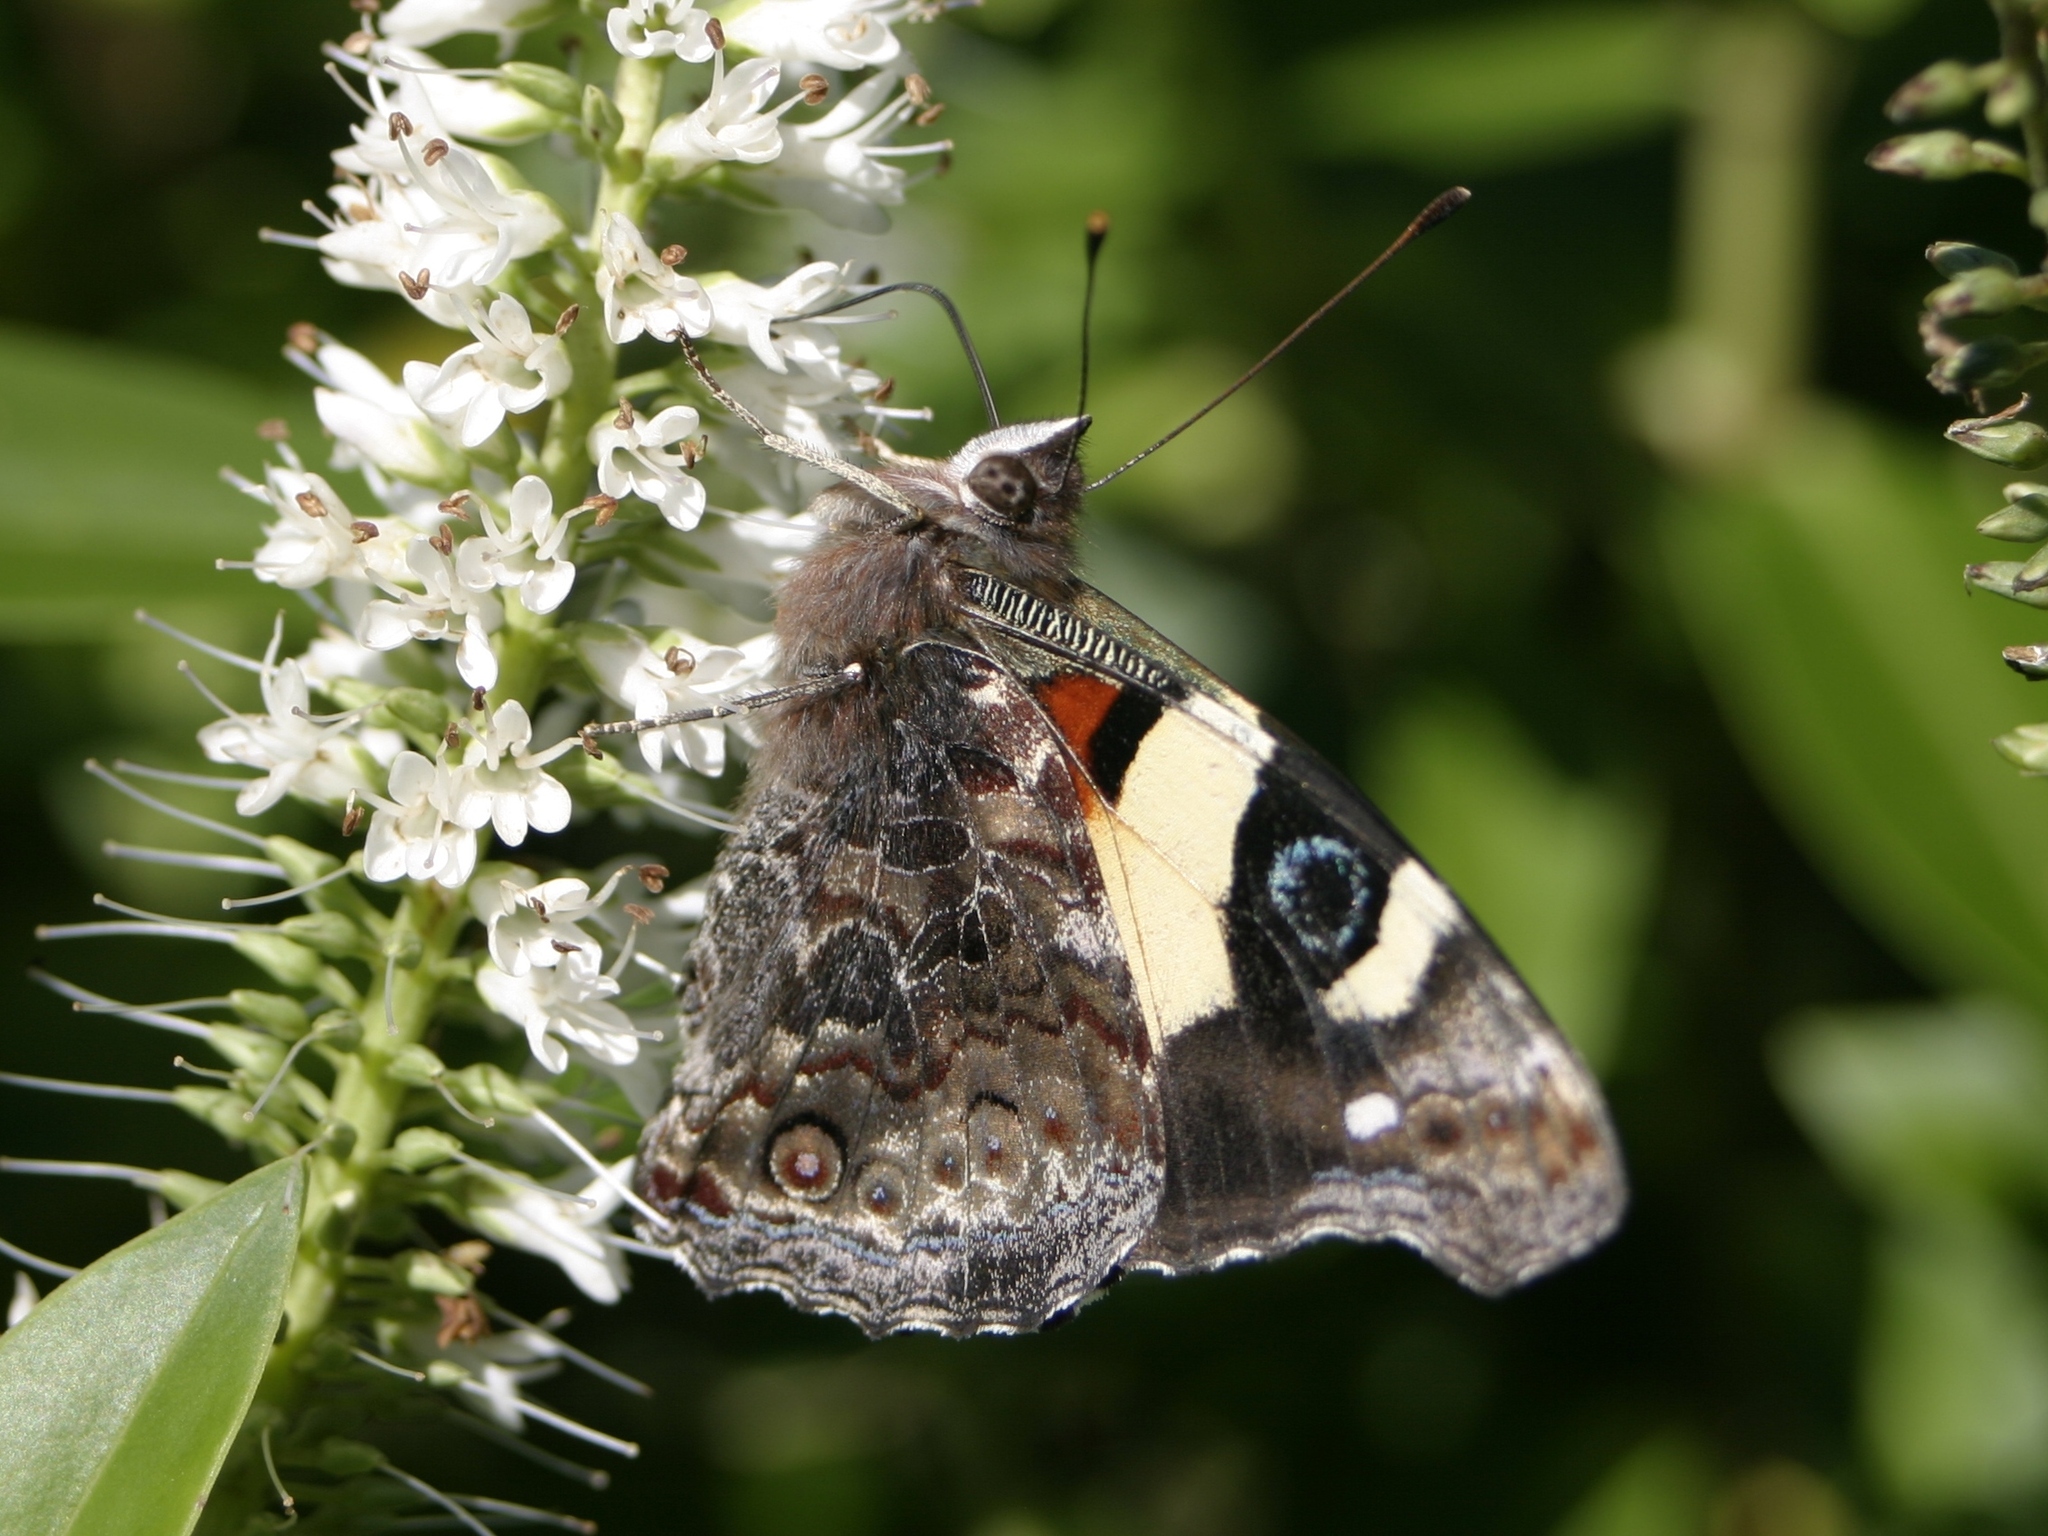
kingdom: Animalia
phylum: Arthropoda
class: Insecta
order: Lepidoptera
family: Nymphalidae
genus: Vanessa
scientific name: Vanessa itea
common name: Yellow admiral
